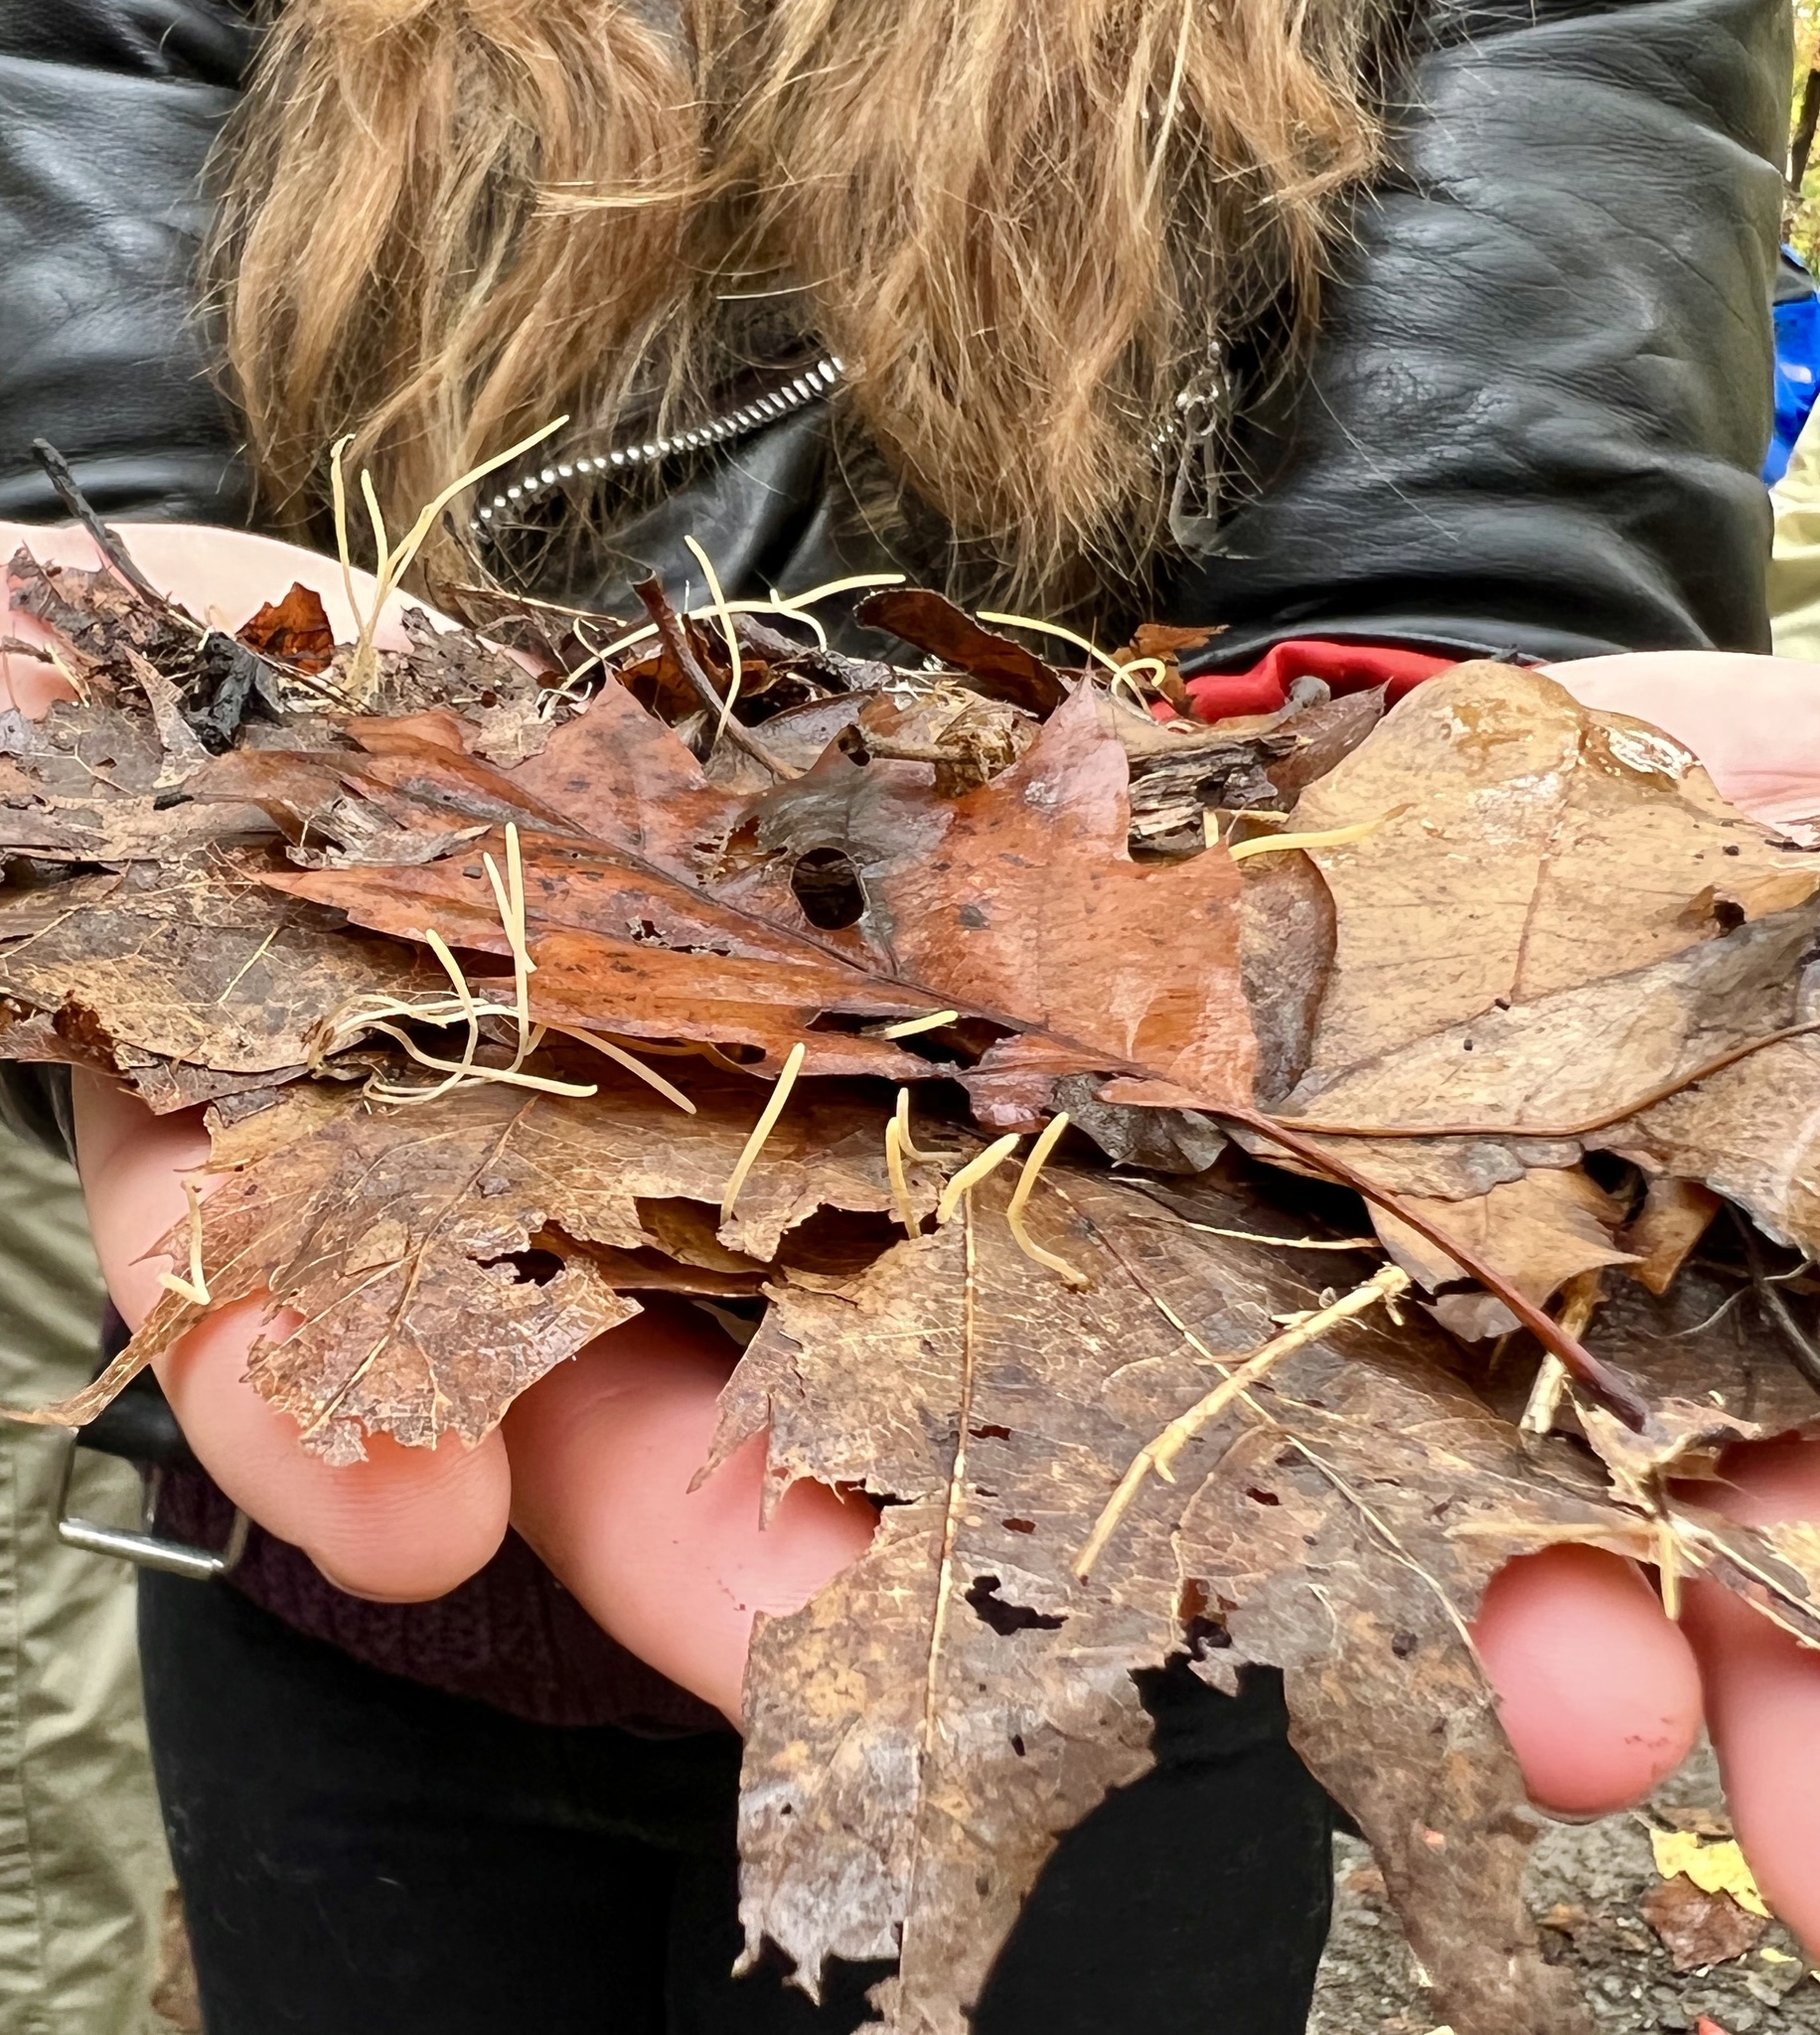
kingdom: Fungi
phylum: Basidiomycota
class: Agaricomycetes
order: Agaricales
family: Typhulaceae
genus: Typhula
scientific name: Typhula juncea
